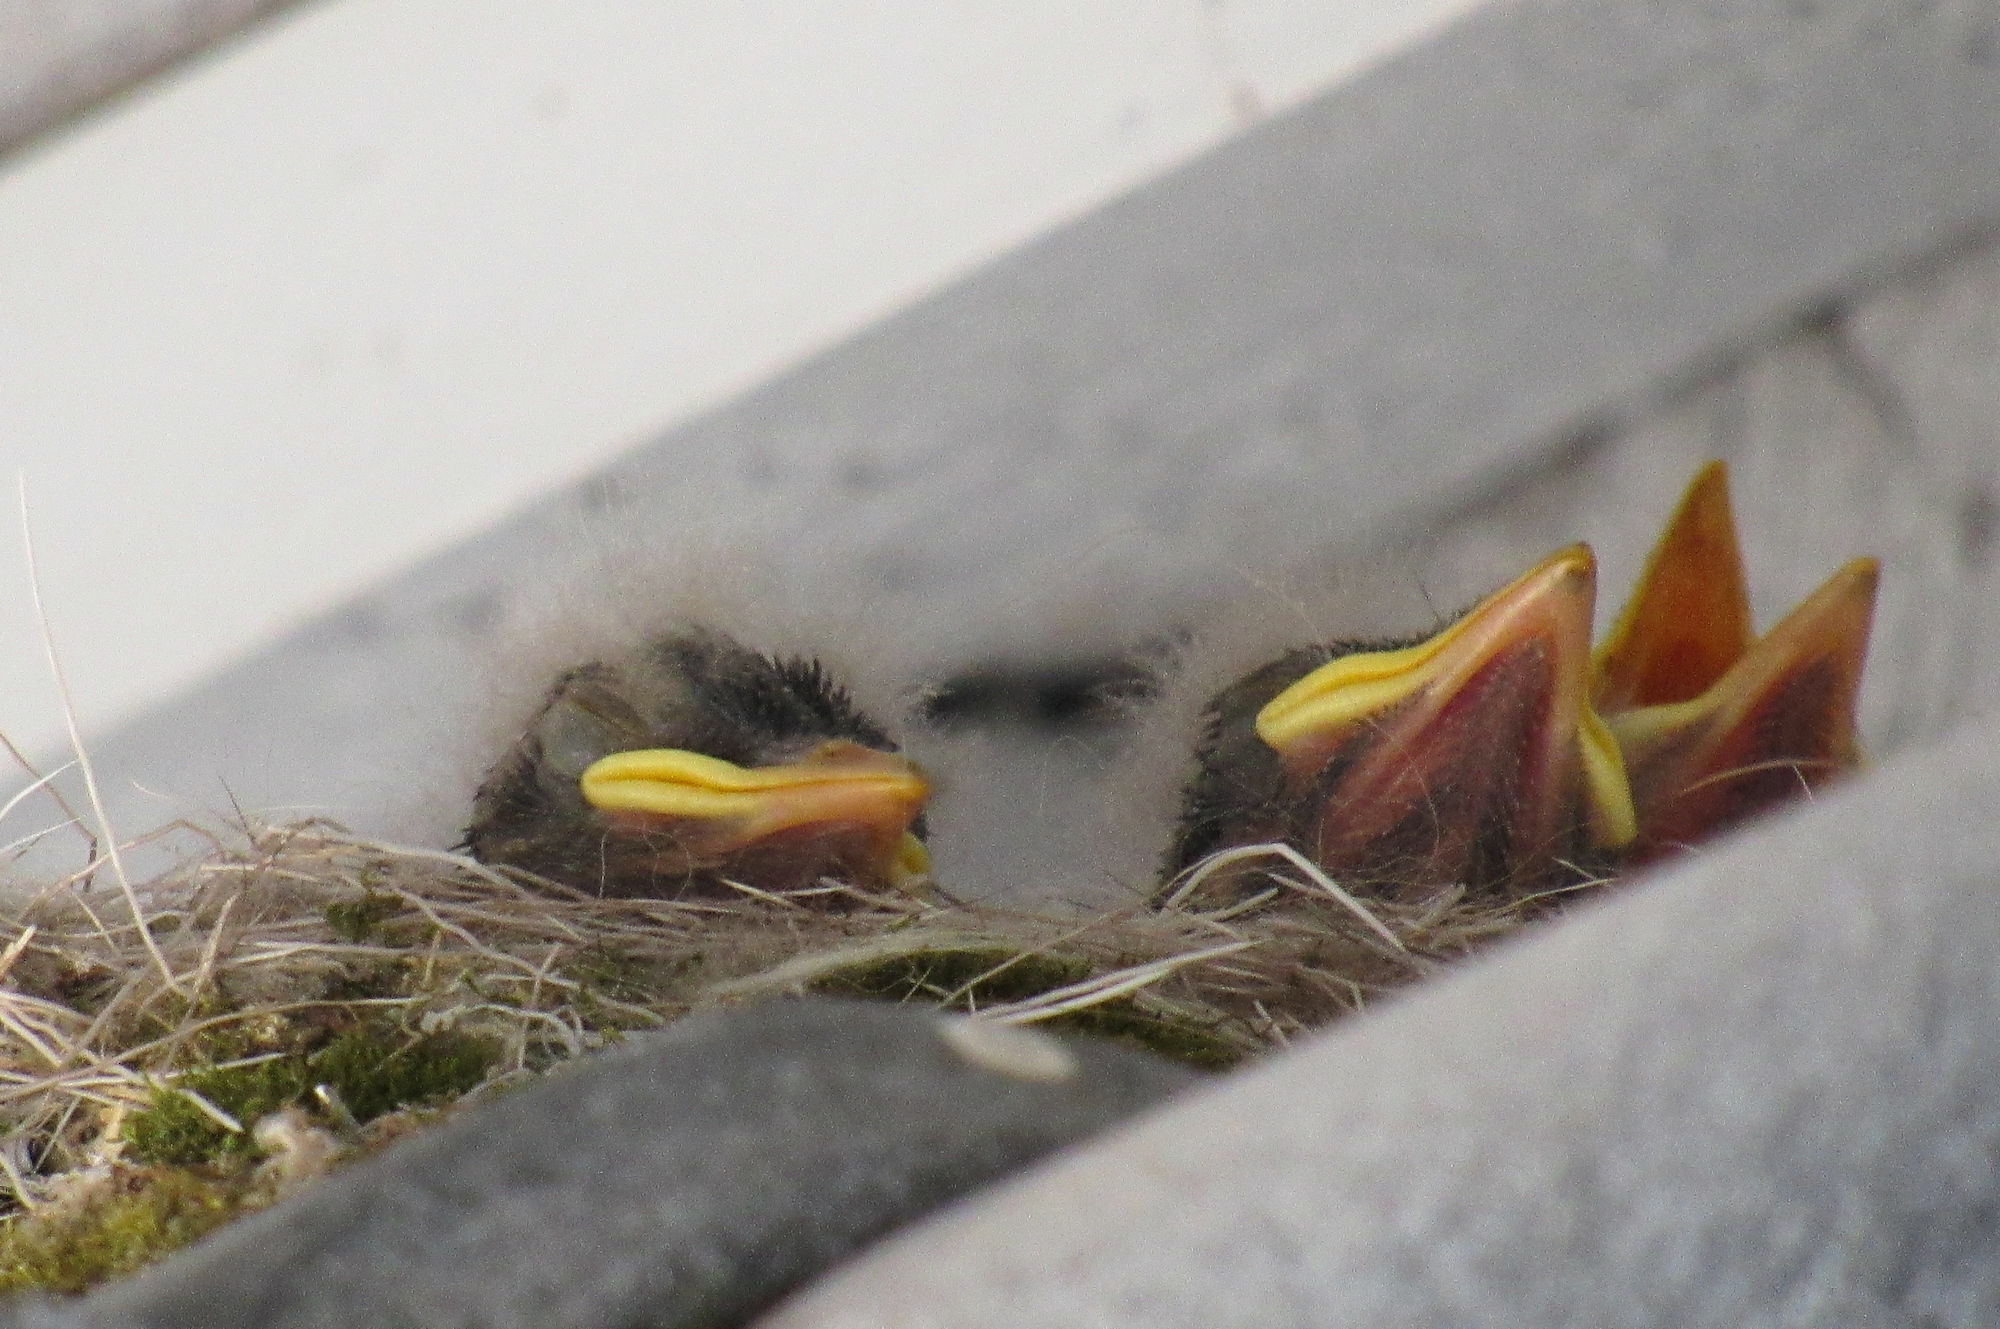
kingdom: Animalia
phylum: Chordata
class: Aves
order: Passeriformes
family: Tyrannidae
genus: Sayornis
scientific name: Sayornis saya
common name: Say's phoebe
